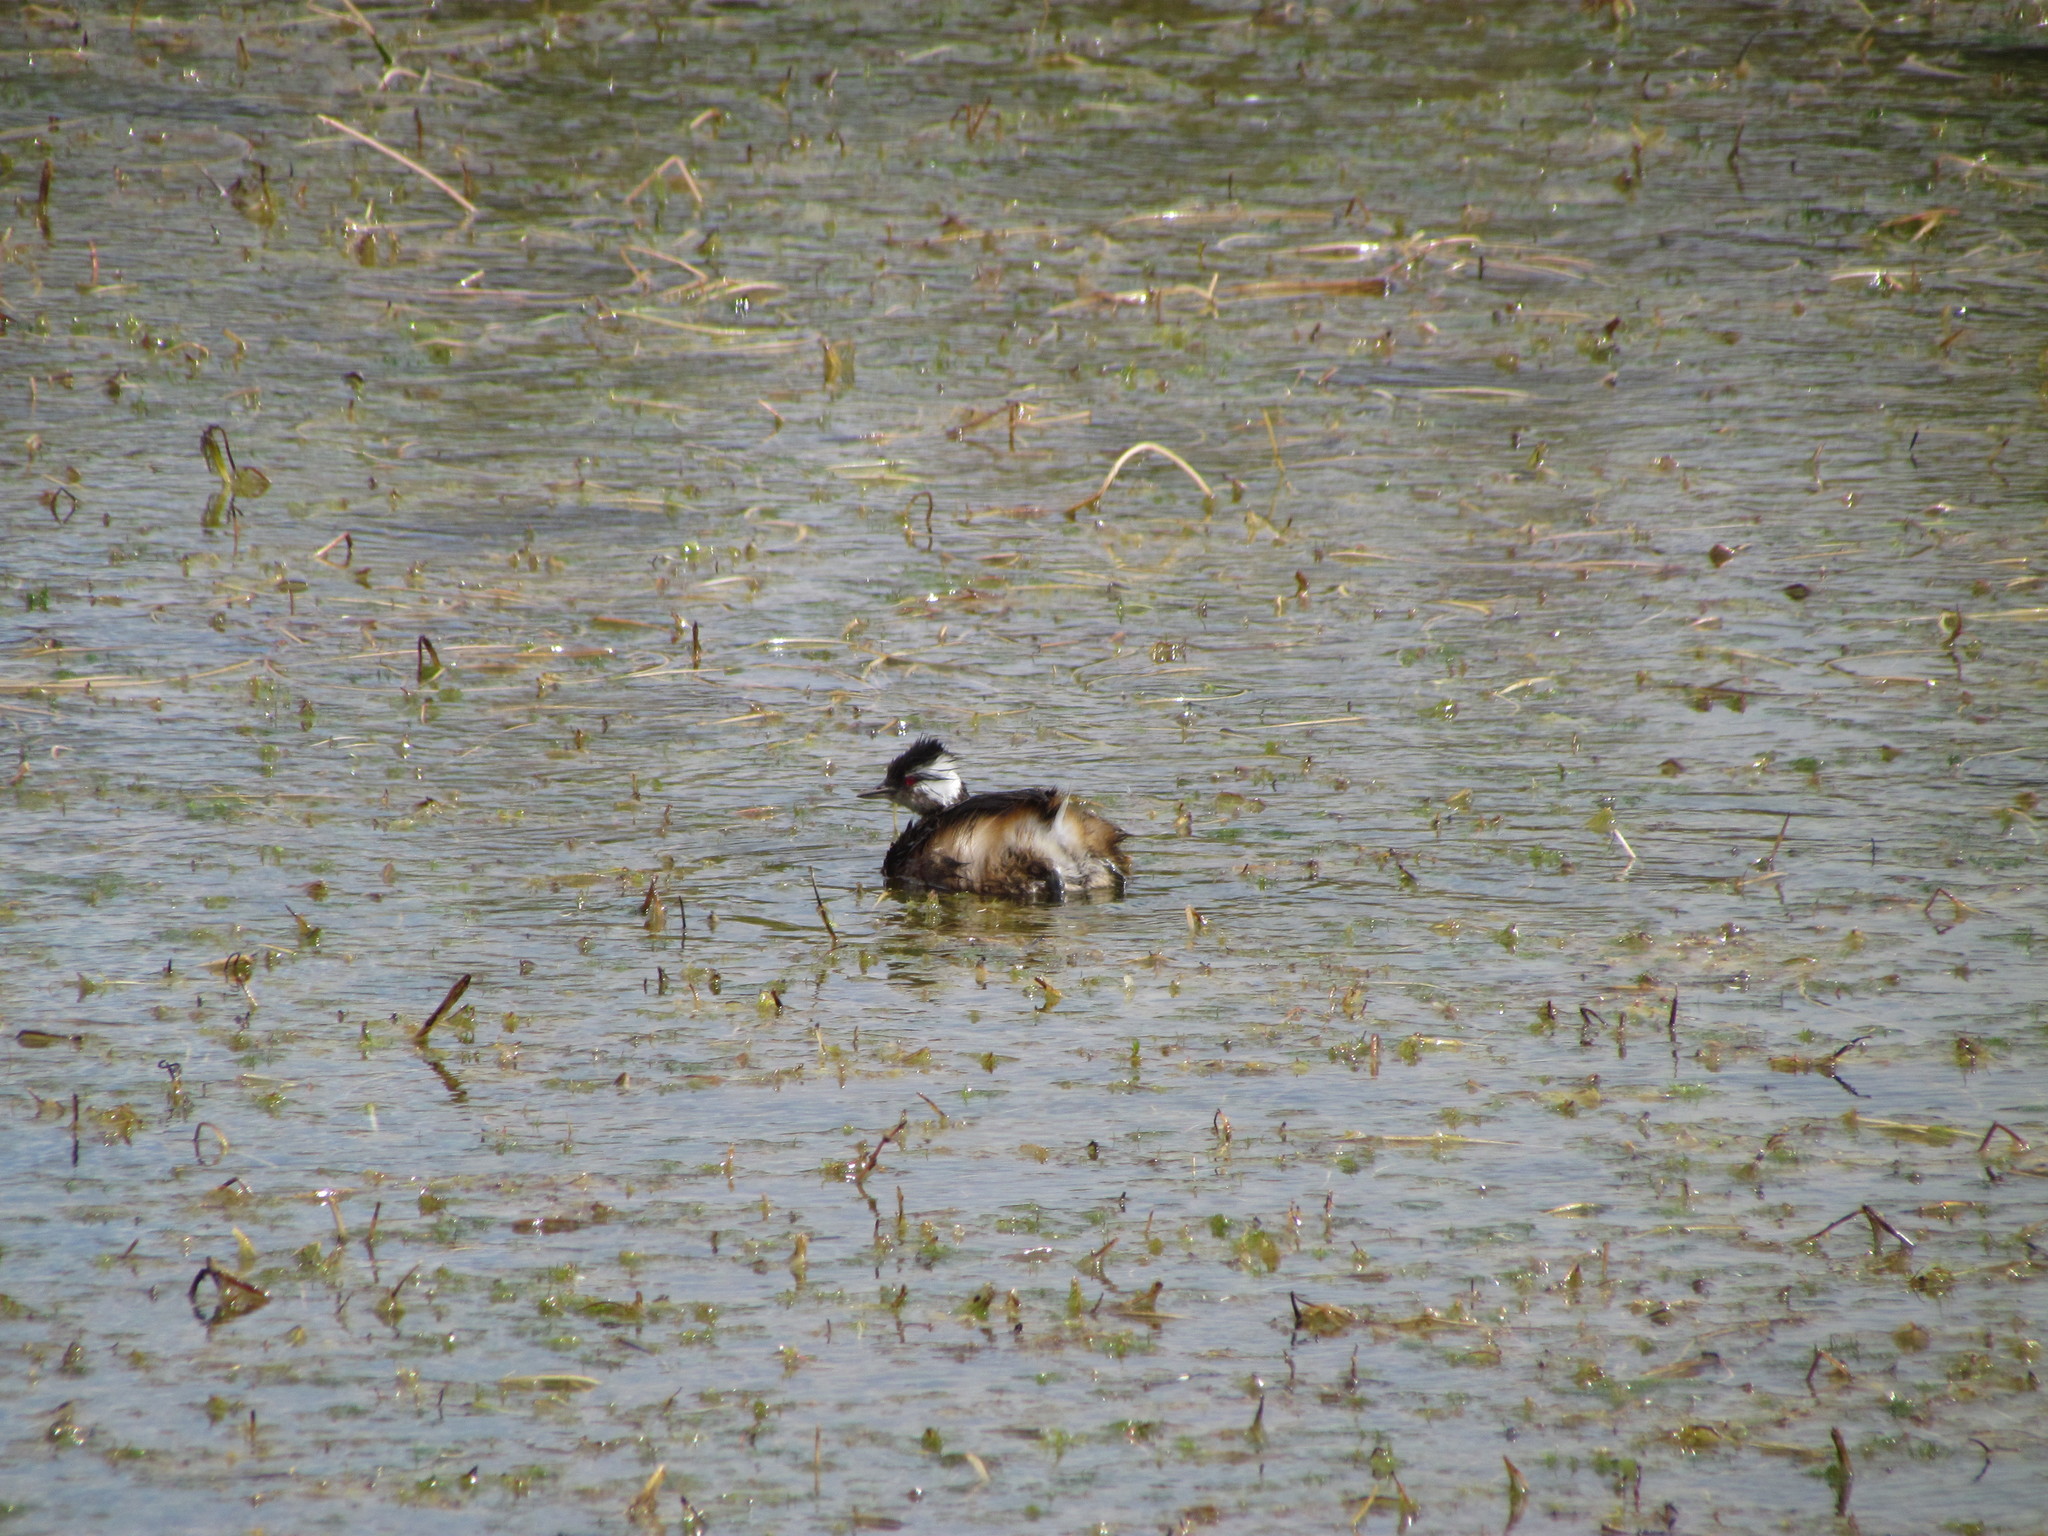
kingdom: Animalia
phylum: Chordata
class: Aves
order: Podicipediformes
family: Podicipedidae
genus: Rollandia
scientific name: Rollandia rolland
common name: White-tufted grebe
